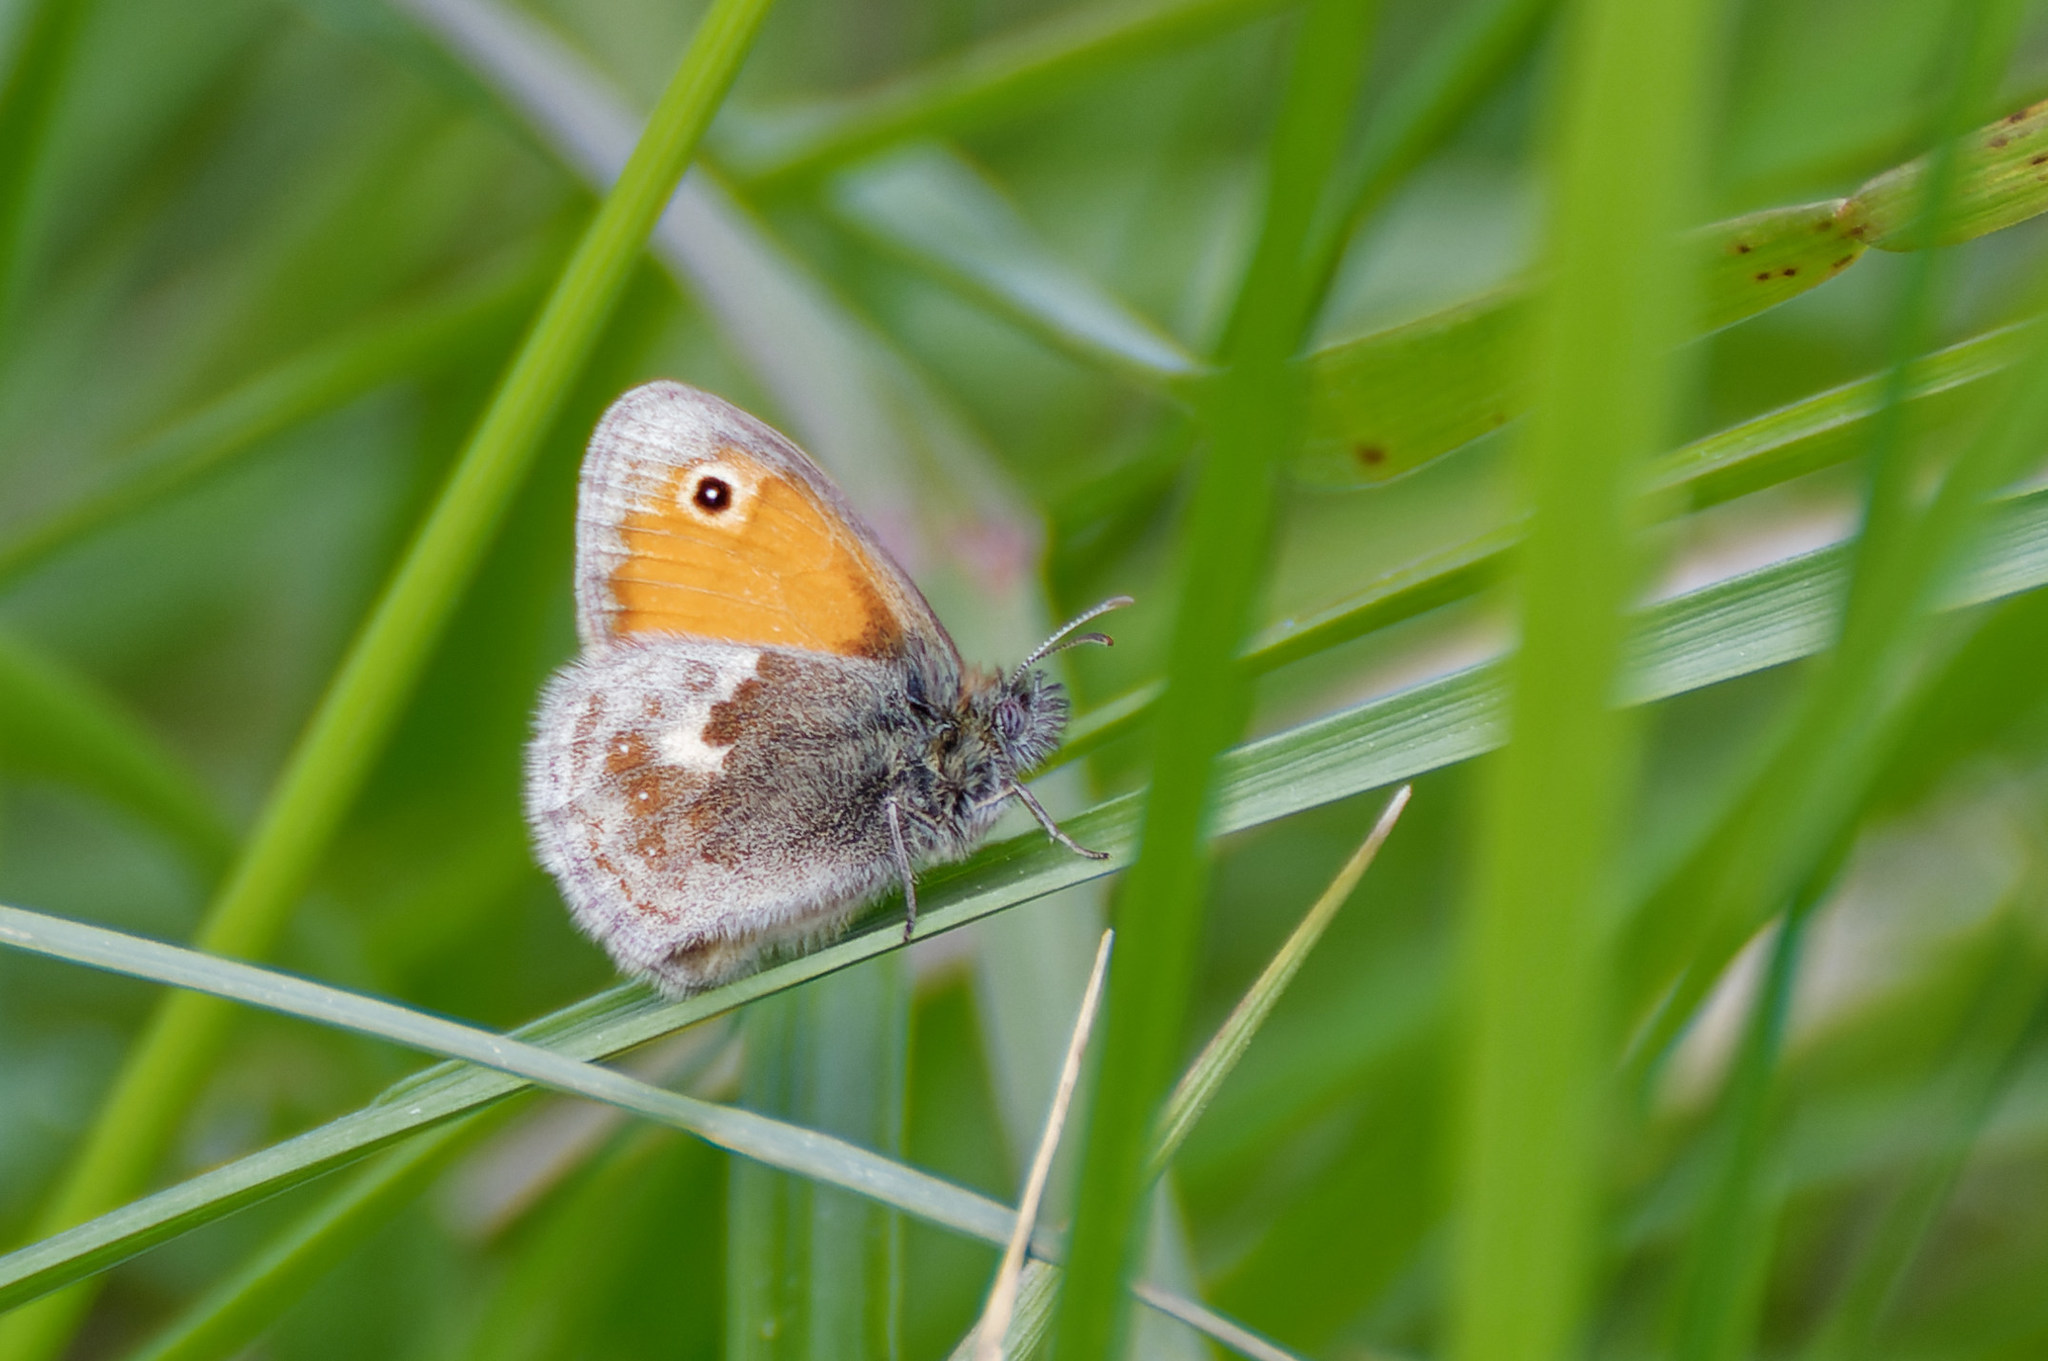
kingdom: Animalia
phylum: Arthropoda
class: Insecta
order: Lepidoptera
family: Nymphalidae
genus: Coenonympha
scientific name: Coenonympha pamphilus
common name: Small heath
